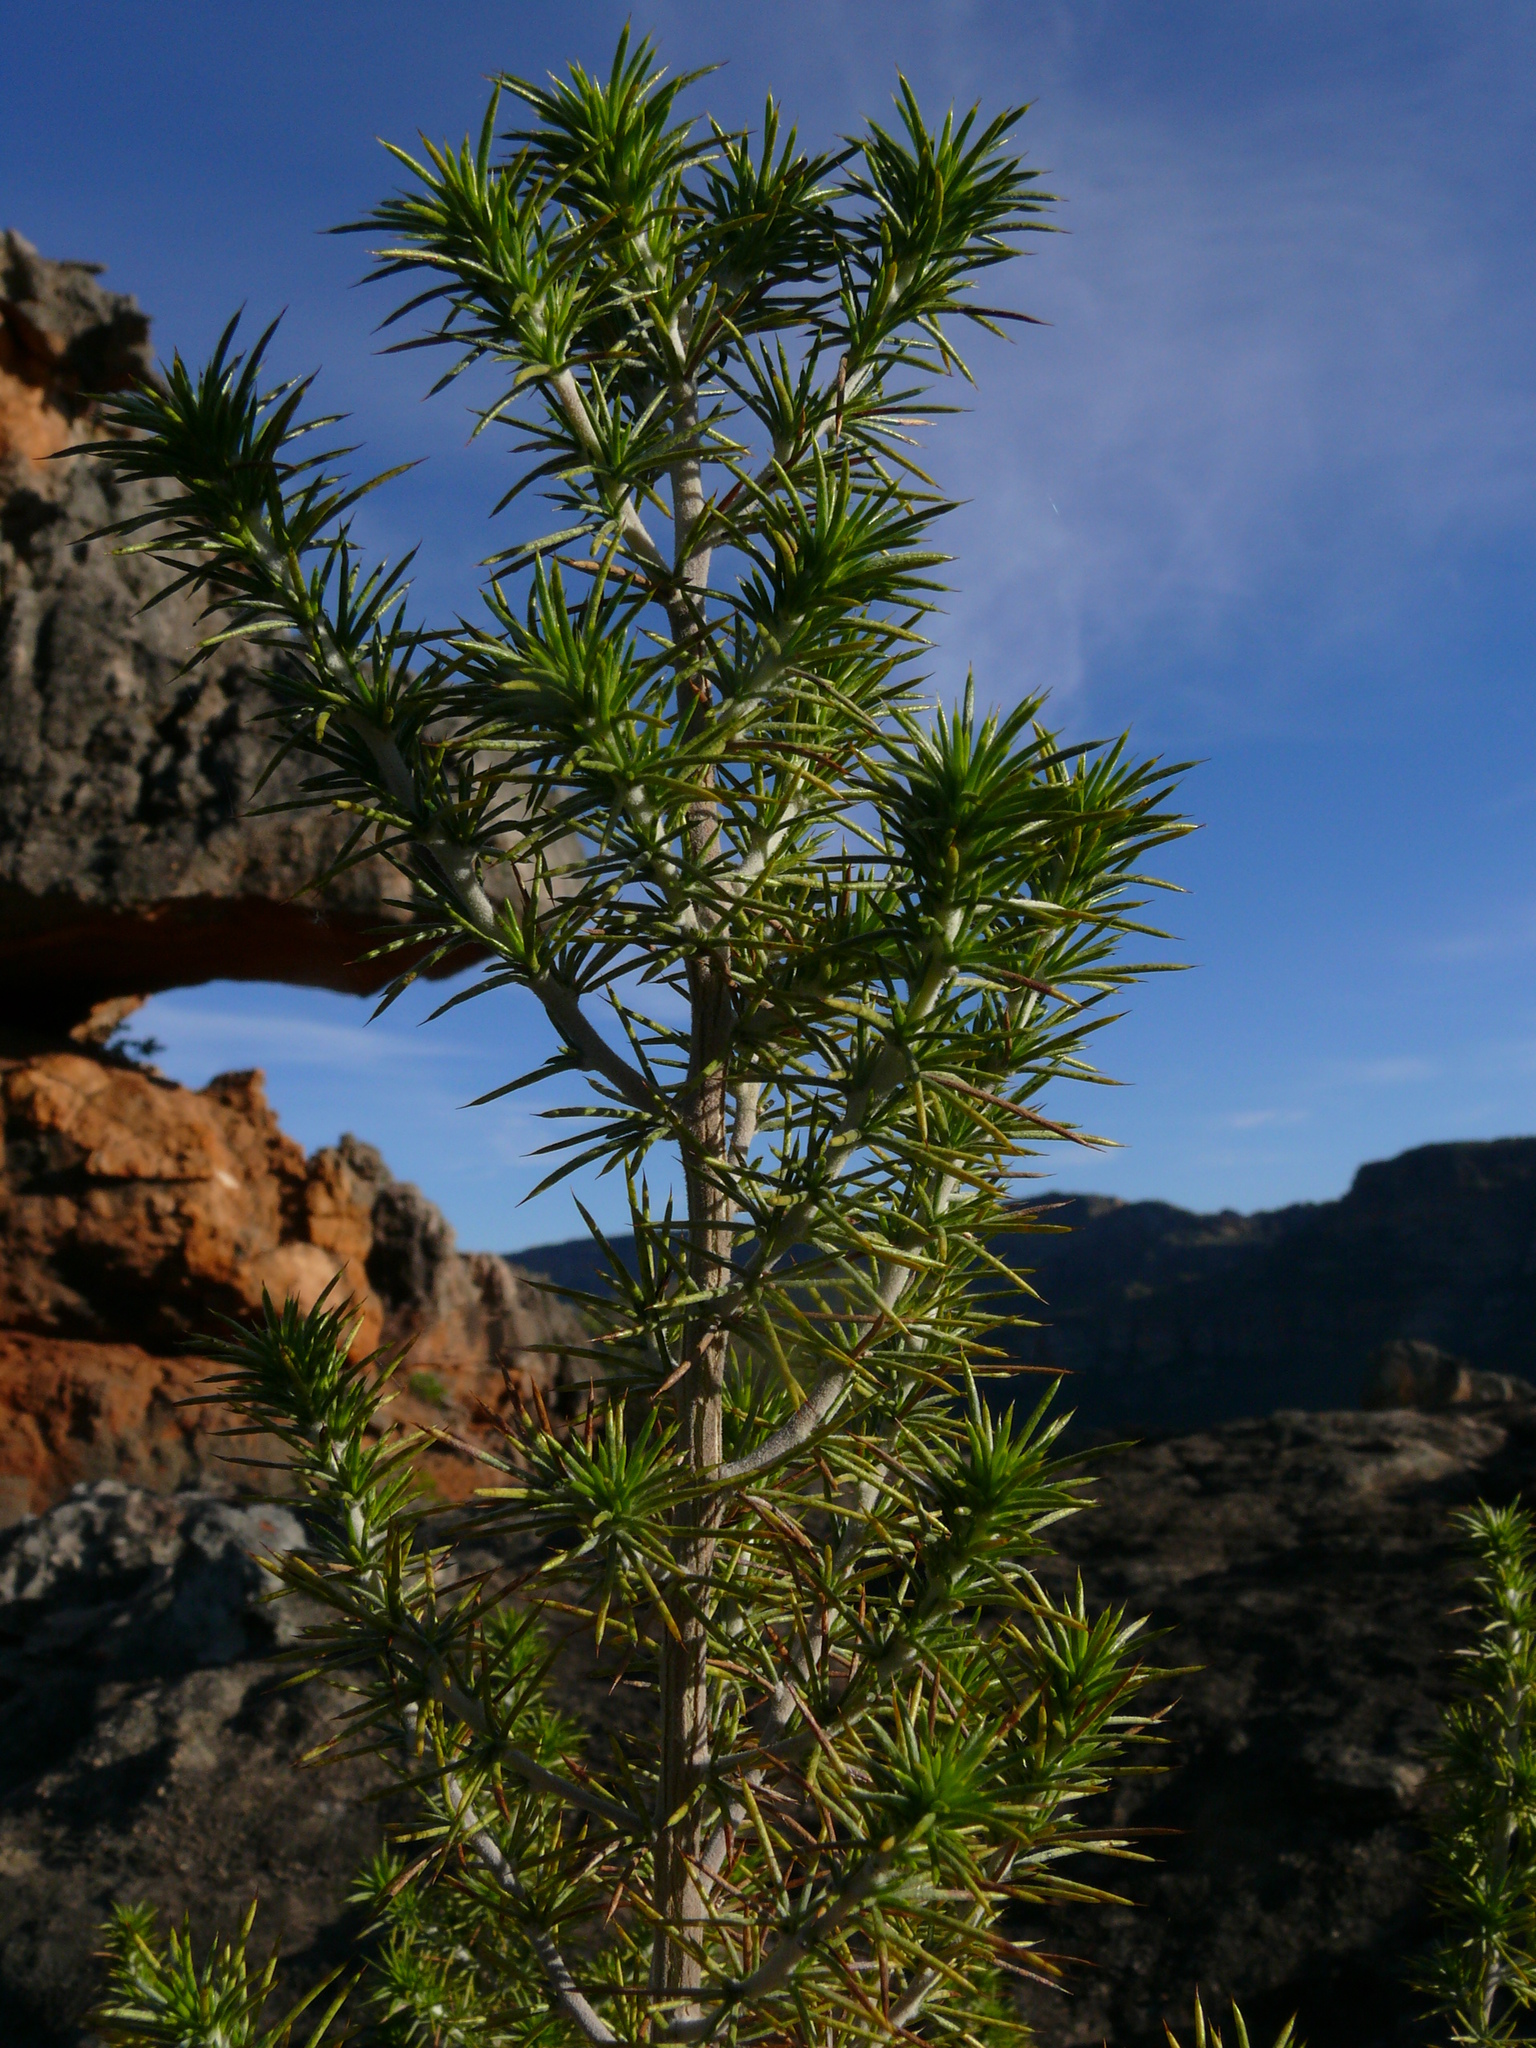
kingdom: Plantae
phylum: Tracheophyta
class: Magnoliopsida
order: Fabales
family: Fabaceae
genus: Aspalathus
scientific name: Aspalathus hirta
